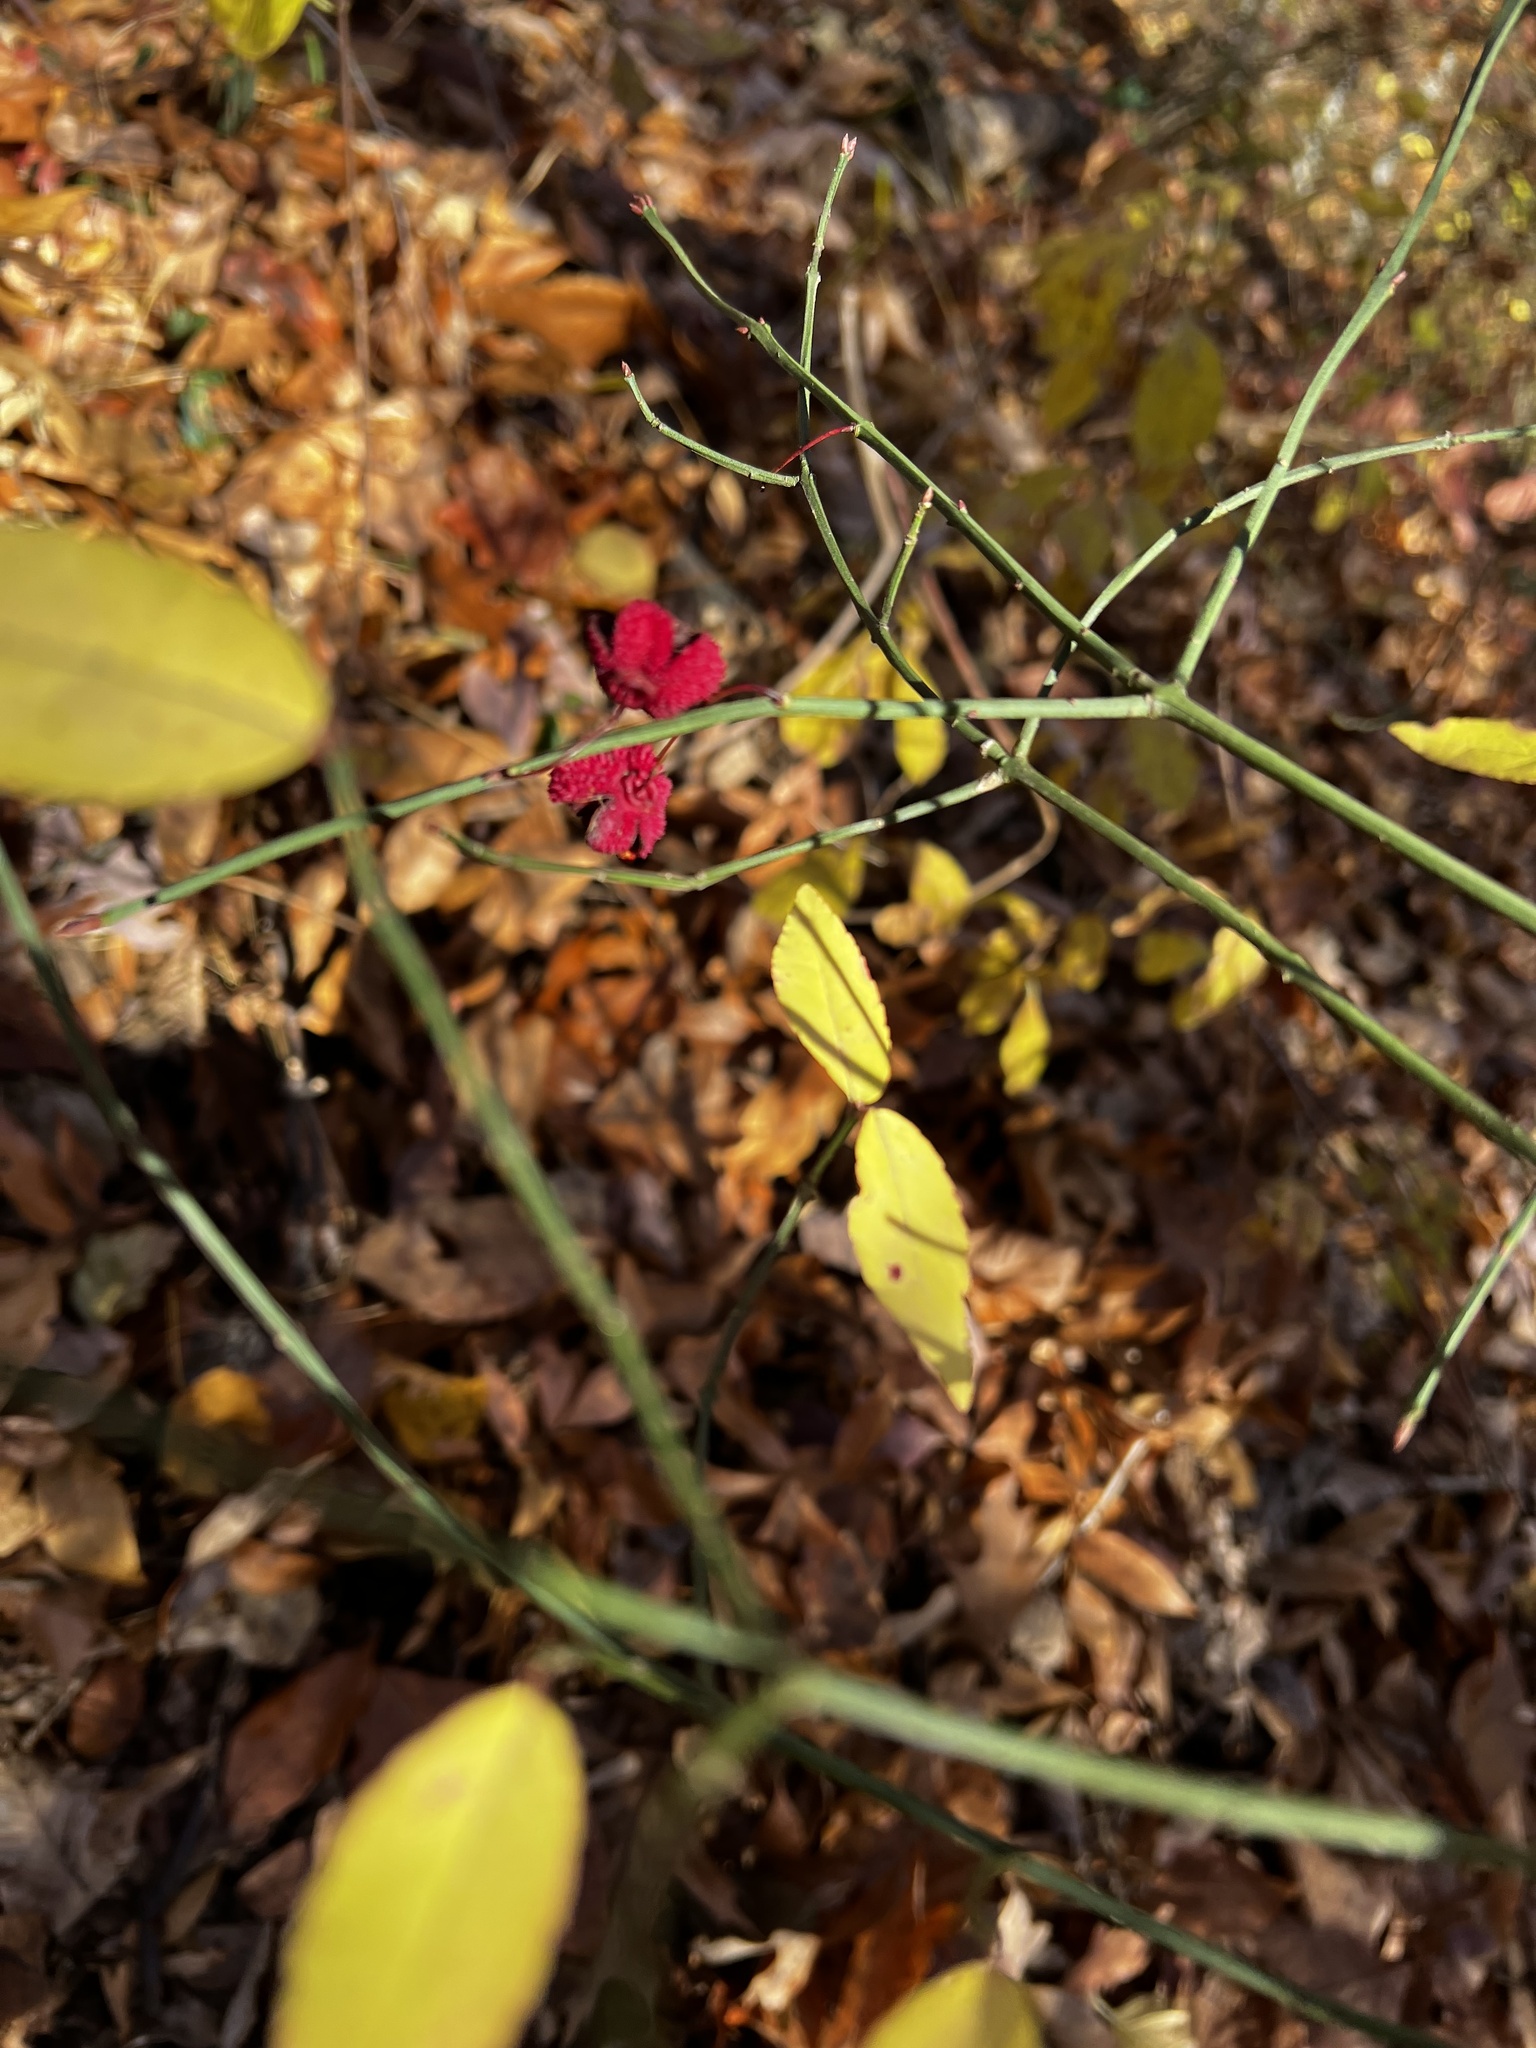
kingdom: Plantae
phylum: Tracheophyta
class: Magnoliopsida
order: Celastrales
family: Celastraceae
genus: Euonymus
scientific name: Euonymus americanus
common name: Bursting-heart
